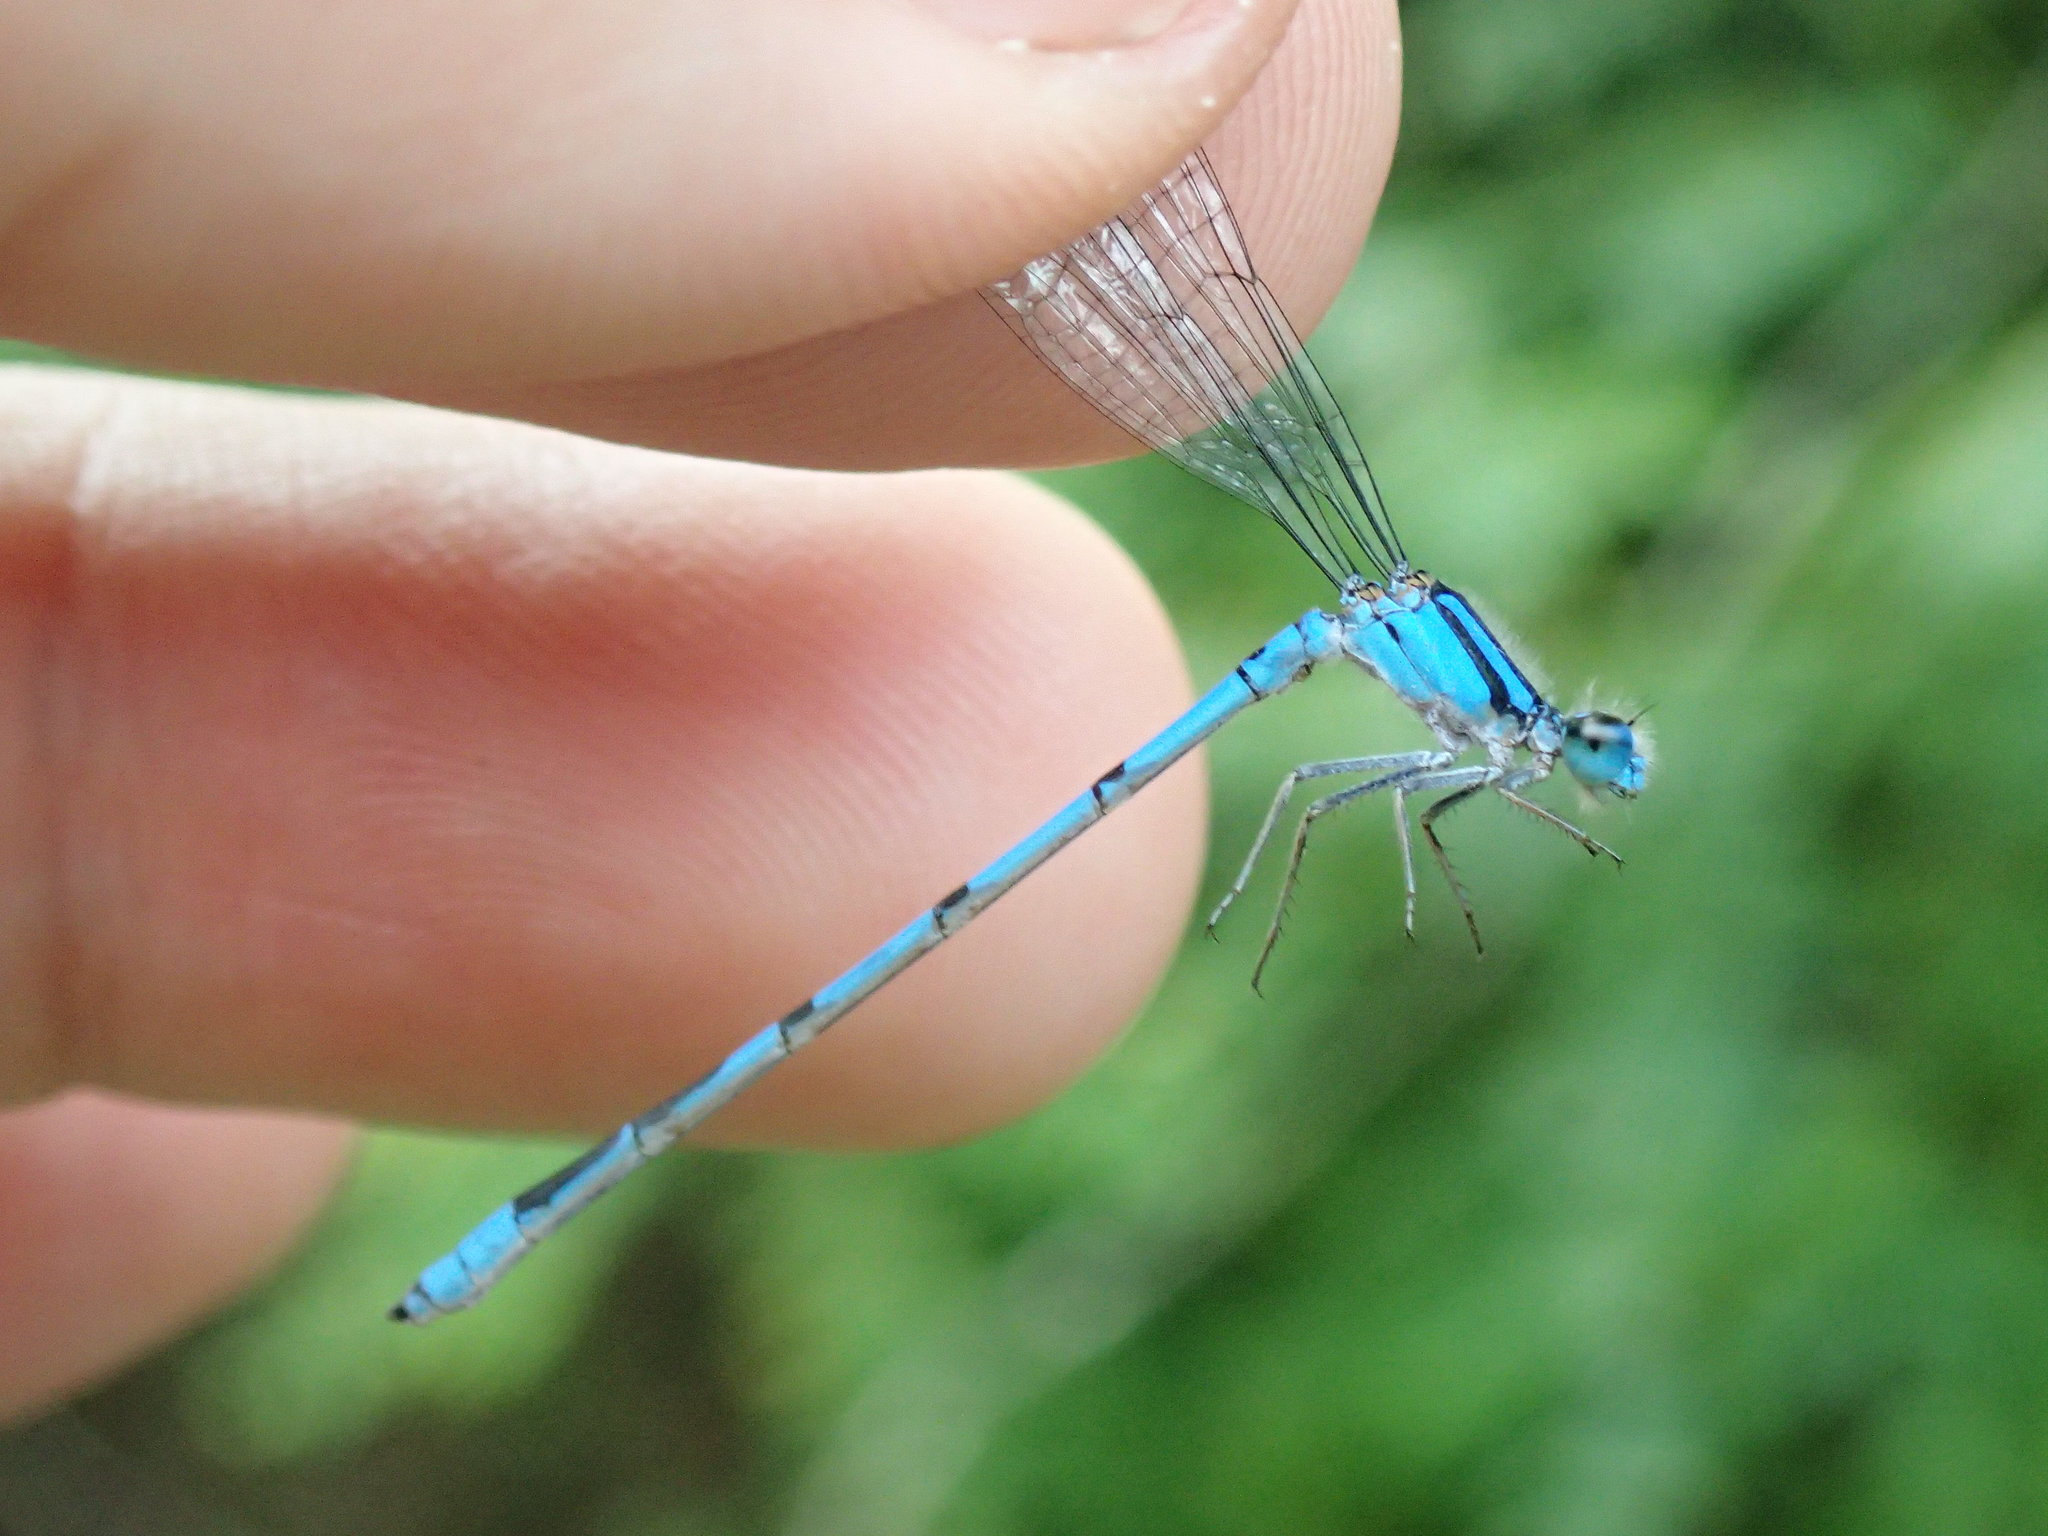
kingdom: Animalia
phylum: Arthropoda
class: Insecta
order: Odonata
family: Coenagrionidae
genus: Enallagma
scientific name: Enallagma civile
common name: Damselfly
